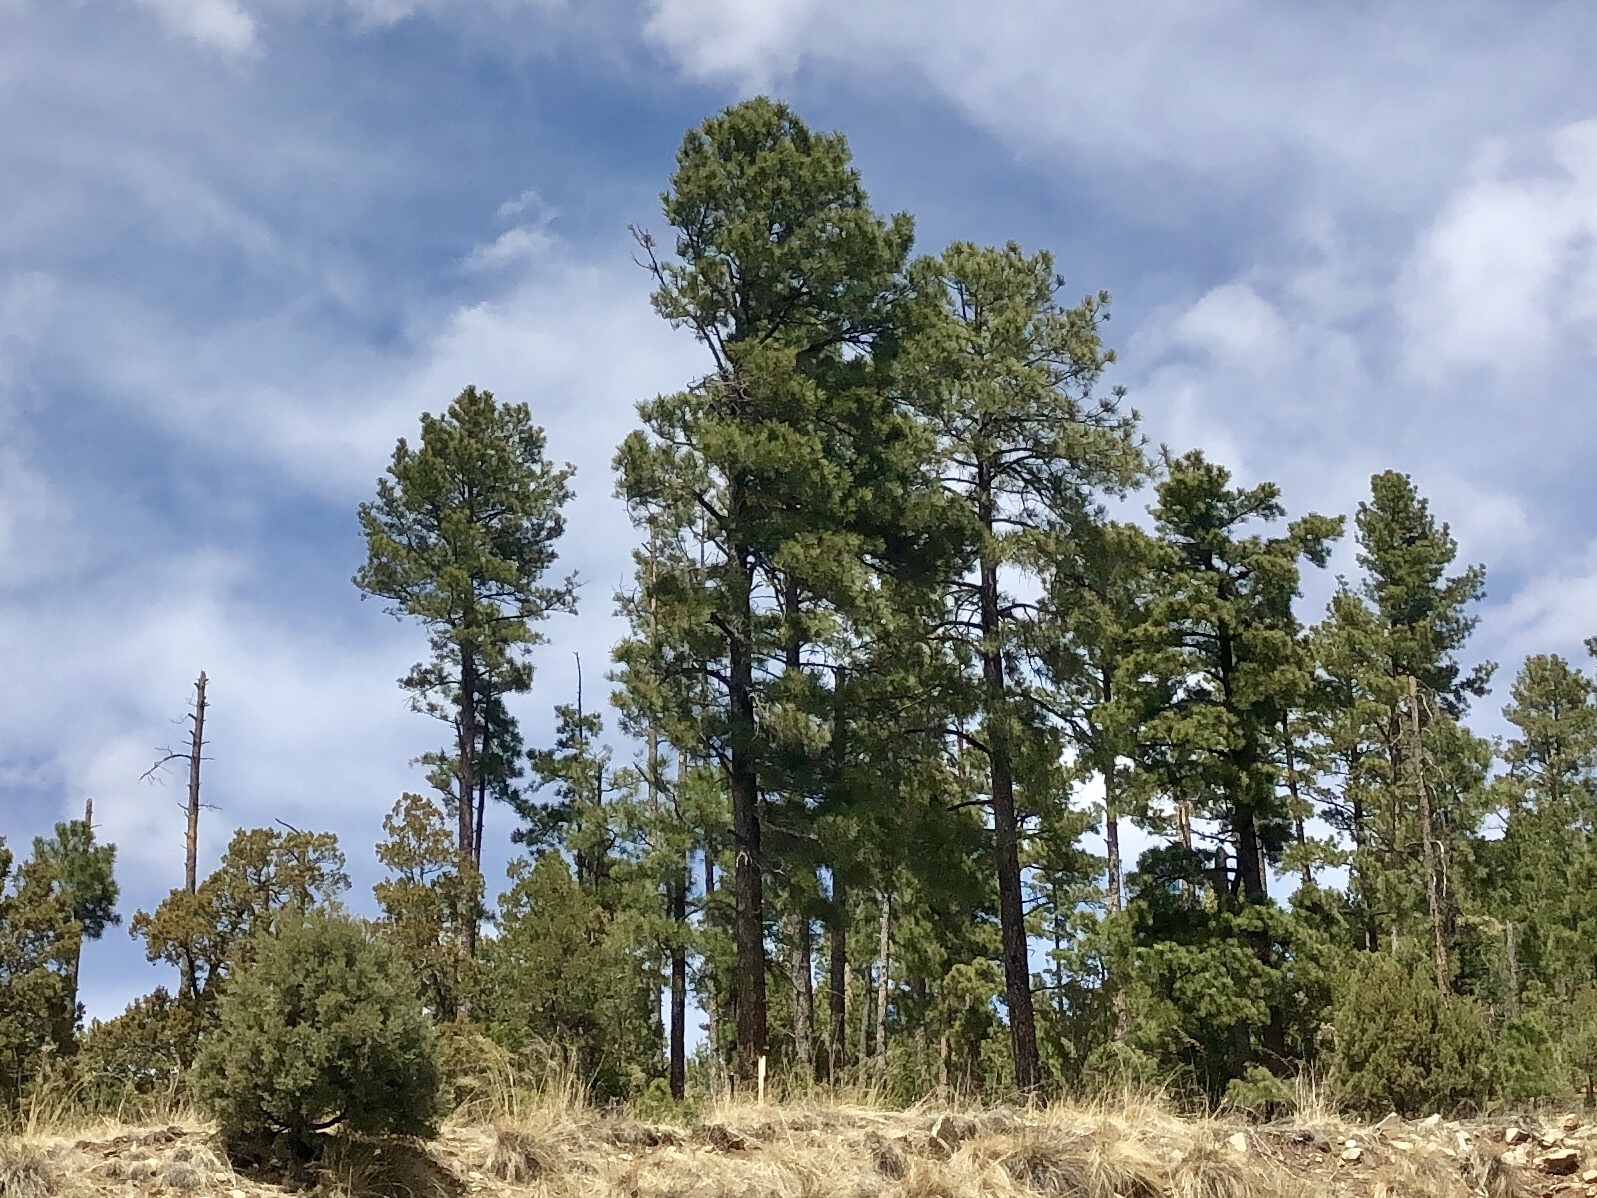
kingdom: Plantae
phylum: Tracheophyta
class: Pinopsida
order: Pinales
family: Pinaceae
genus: Pinus
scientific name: Pinus ponderosa
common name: Western yellow-pine
